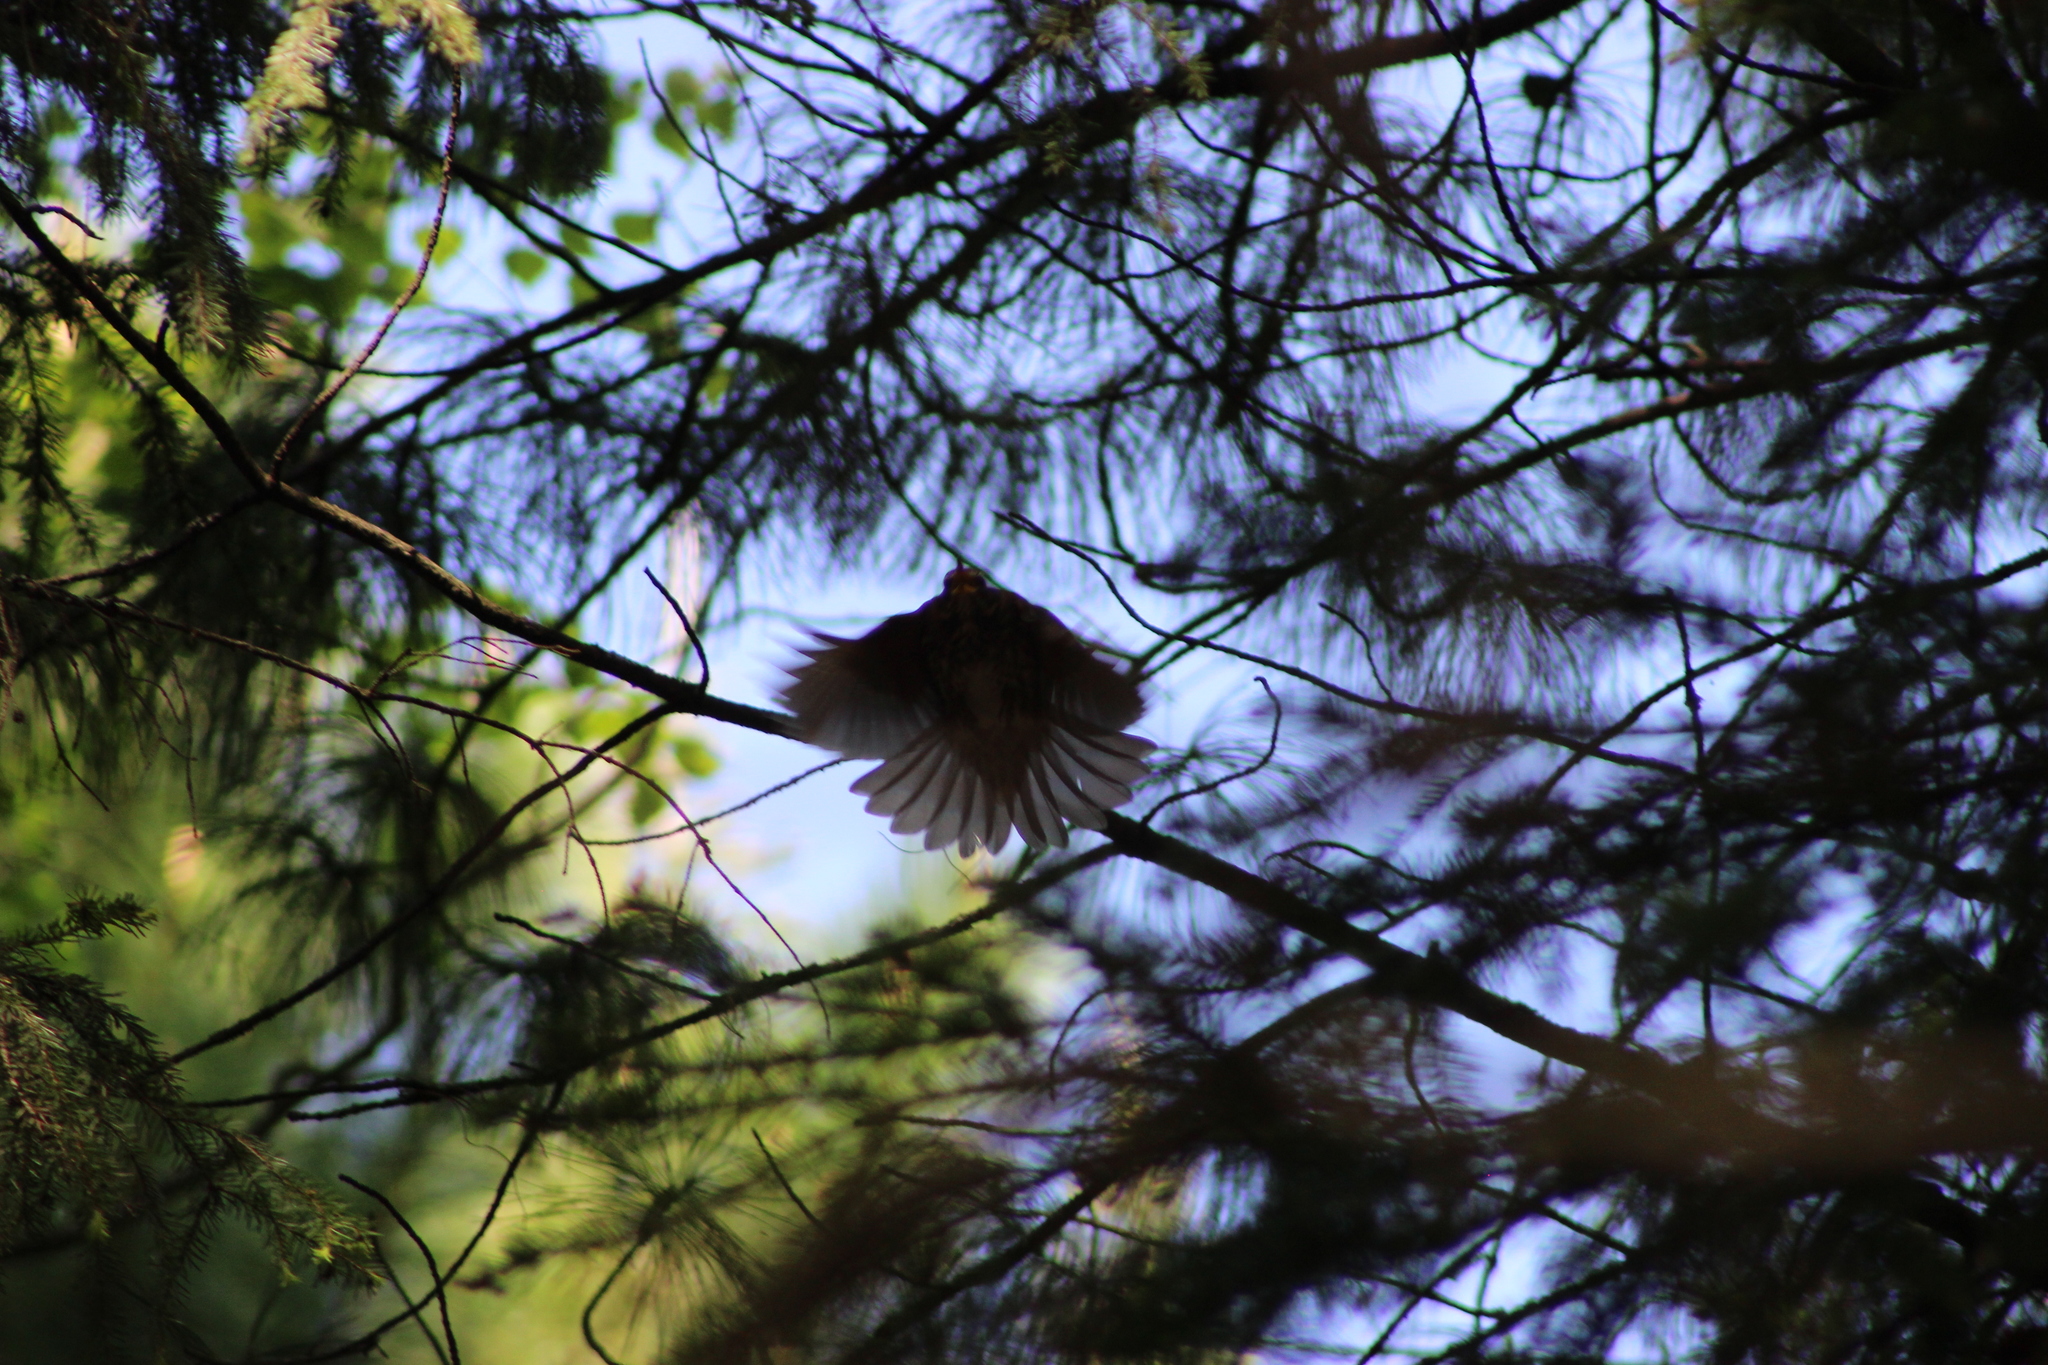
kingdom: Animalia
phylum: Chordata
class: Aves
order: Passeriformes
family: Turdidae
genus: Turdus
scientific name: Turdus iliacus
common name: Redwing
